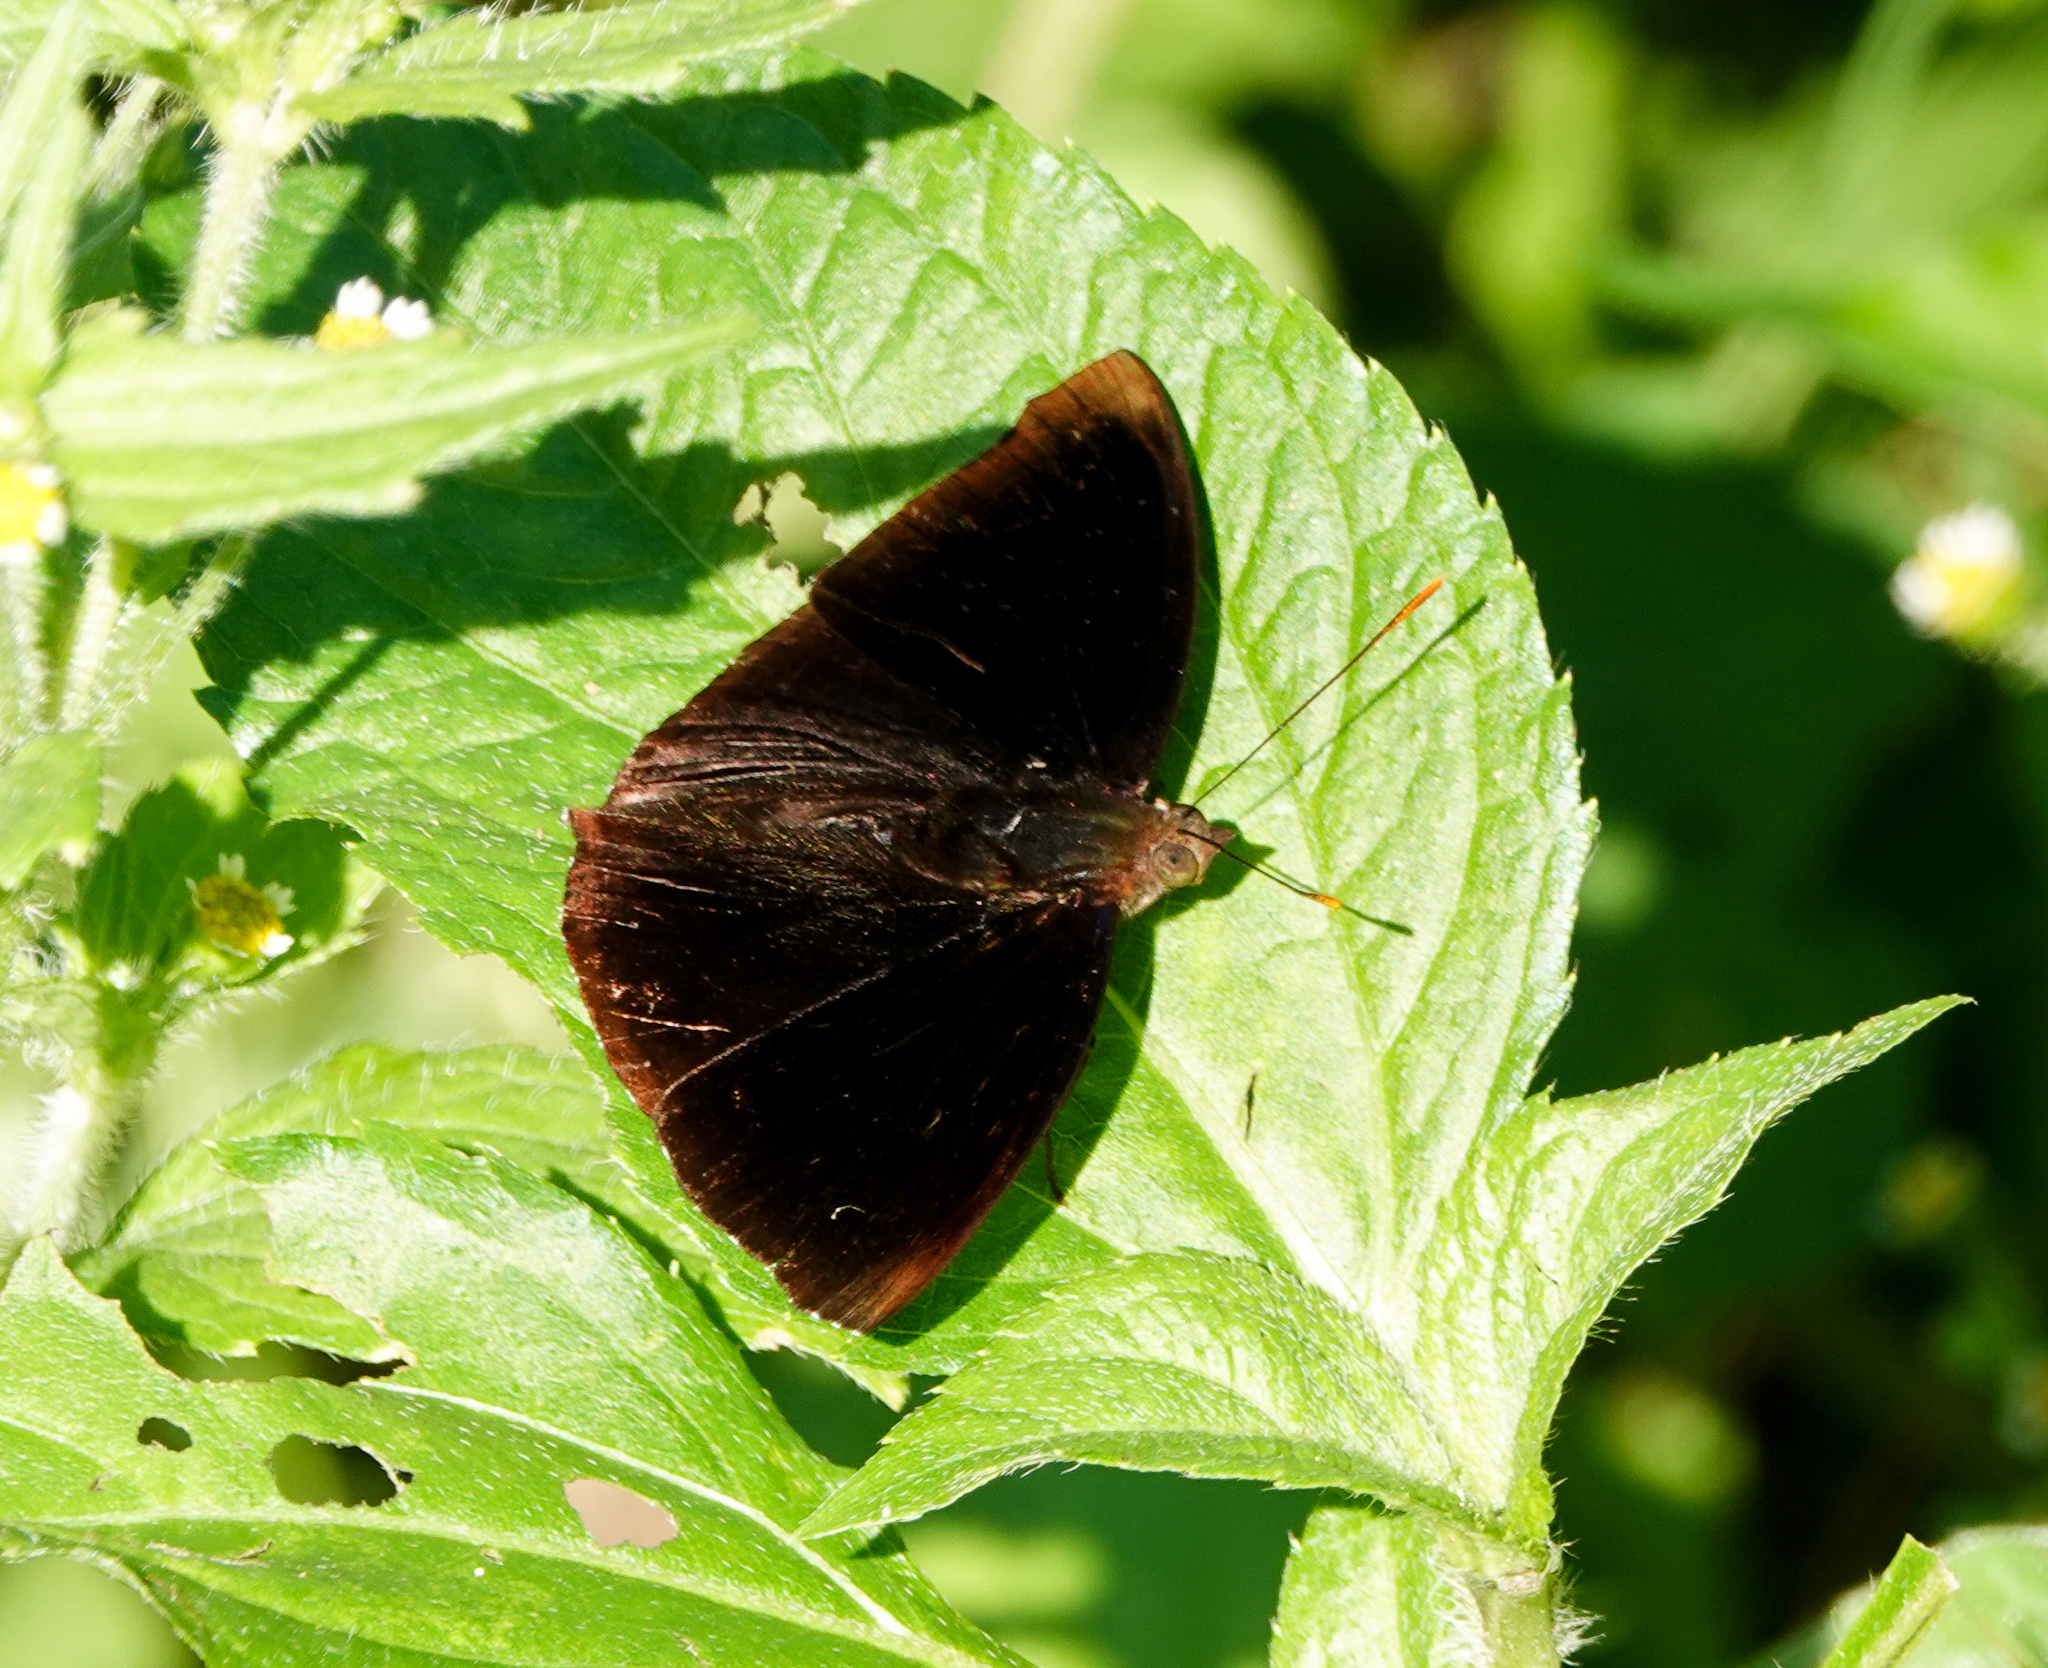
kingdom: Animalia
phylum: Arthropoda
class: Insecta
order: Lepidoptera
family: Nymphalidae
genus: Apatura
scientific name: Apatura Rohana spec
